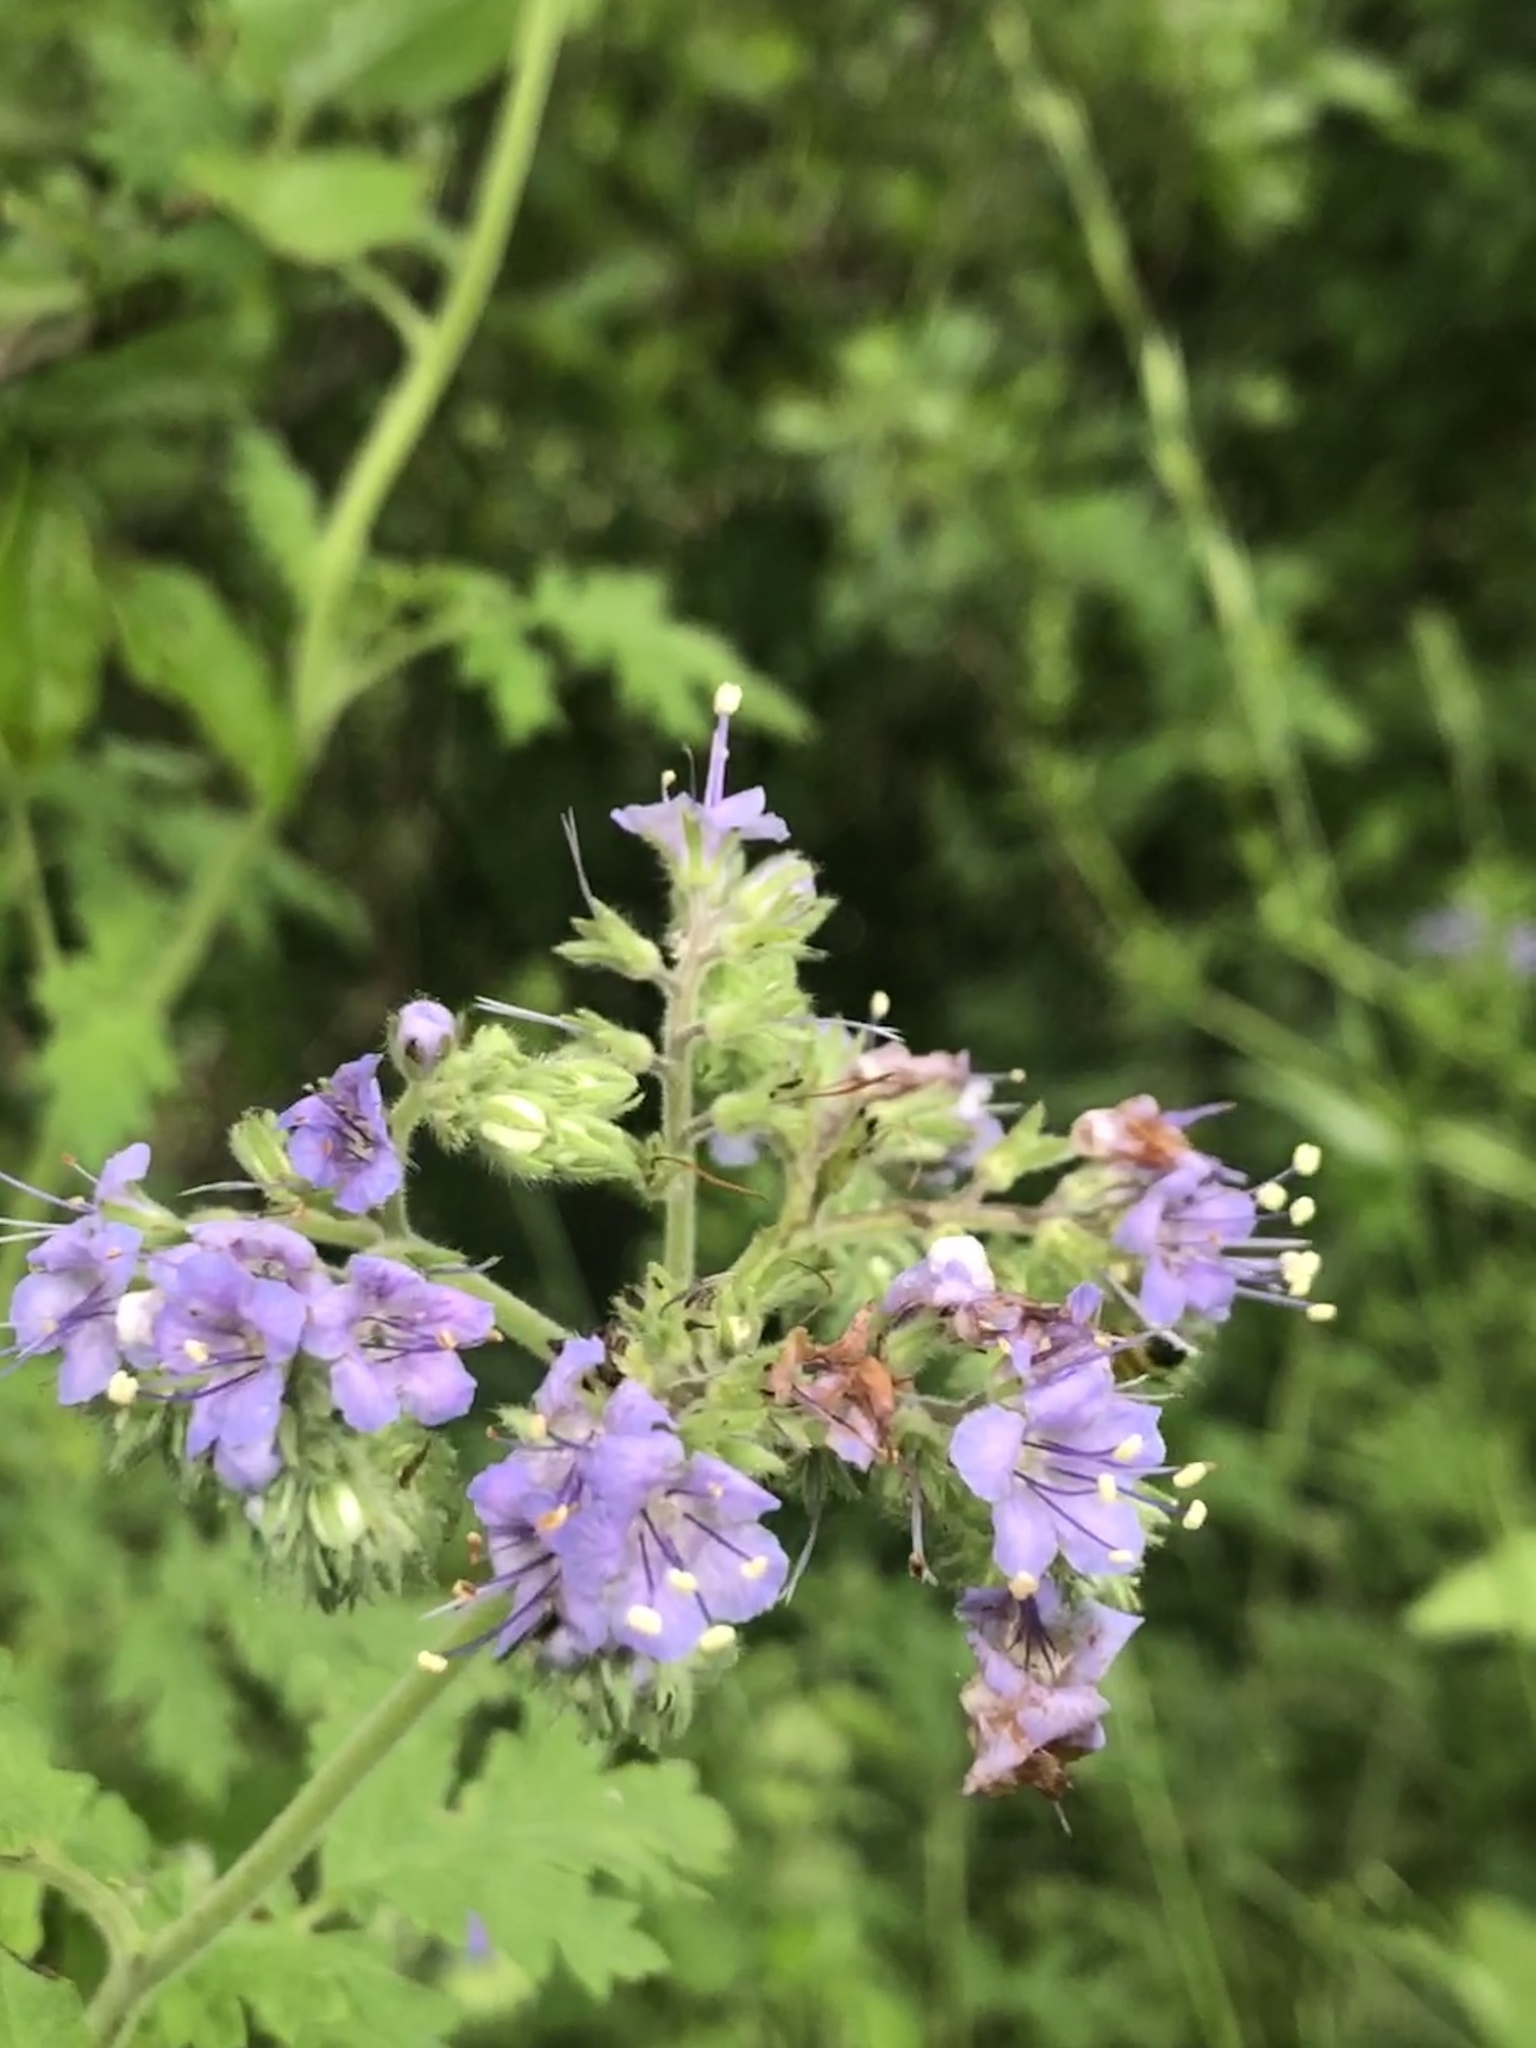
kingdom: Plantae
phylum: Tracheophyta
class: Magnoliopsida
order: Boraginales
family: Hydrophyllaceae
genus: Phacelia
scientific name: Phacelia congesta
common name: Blue curls
